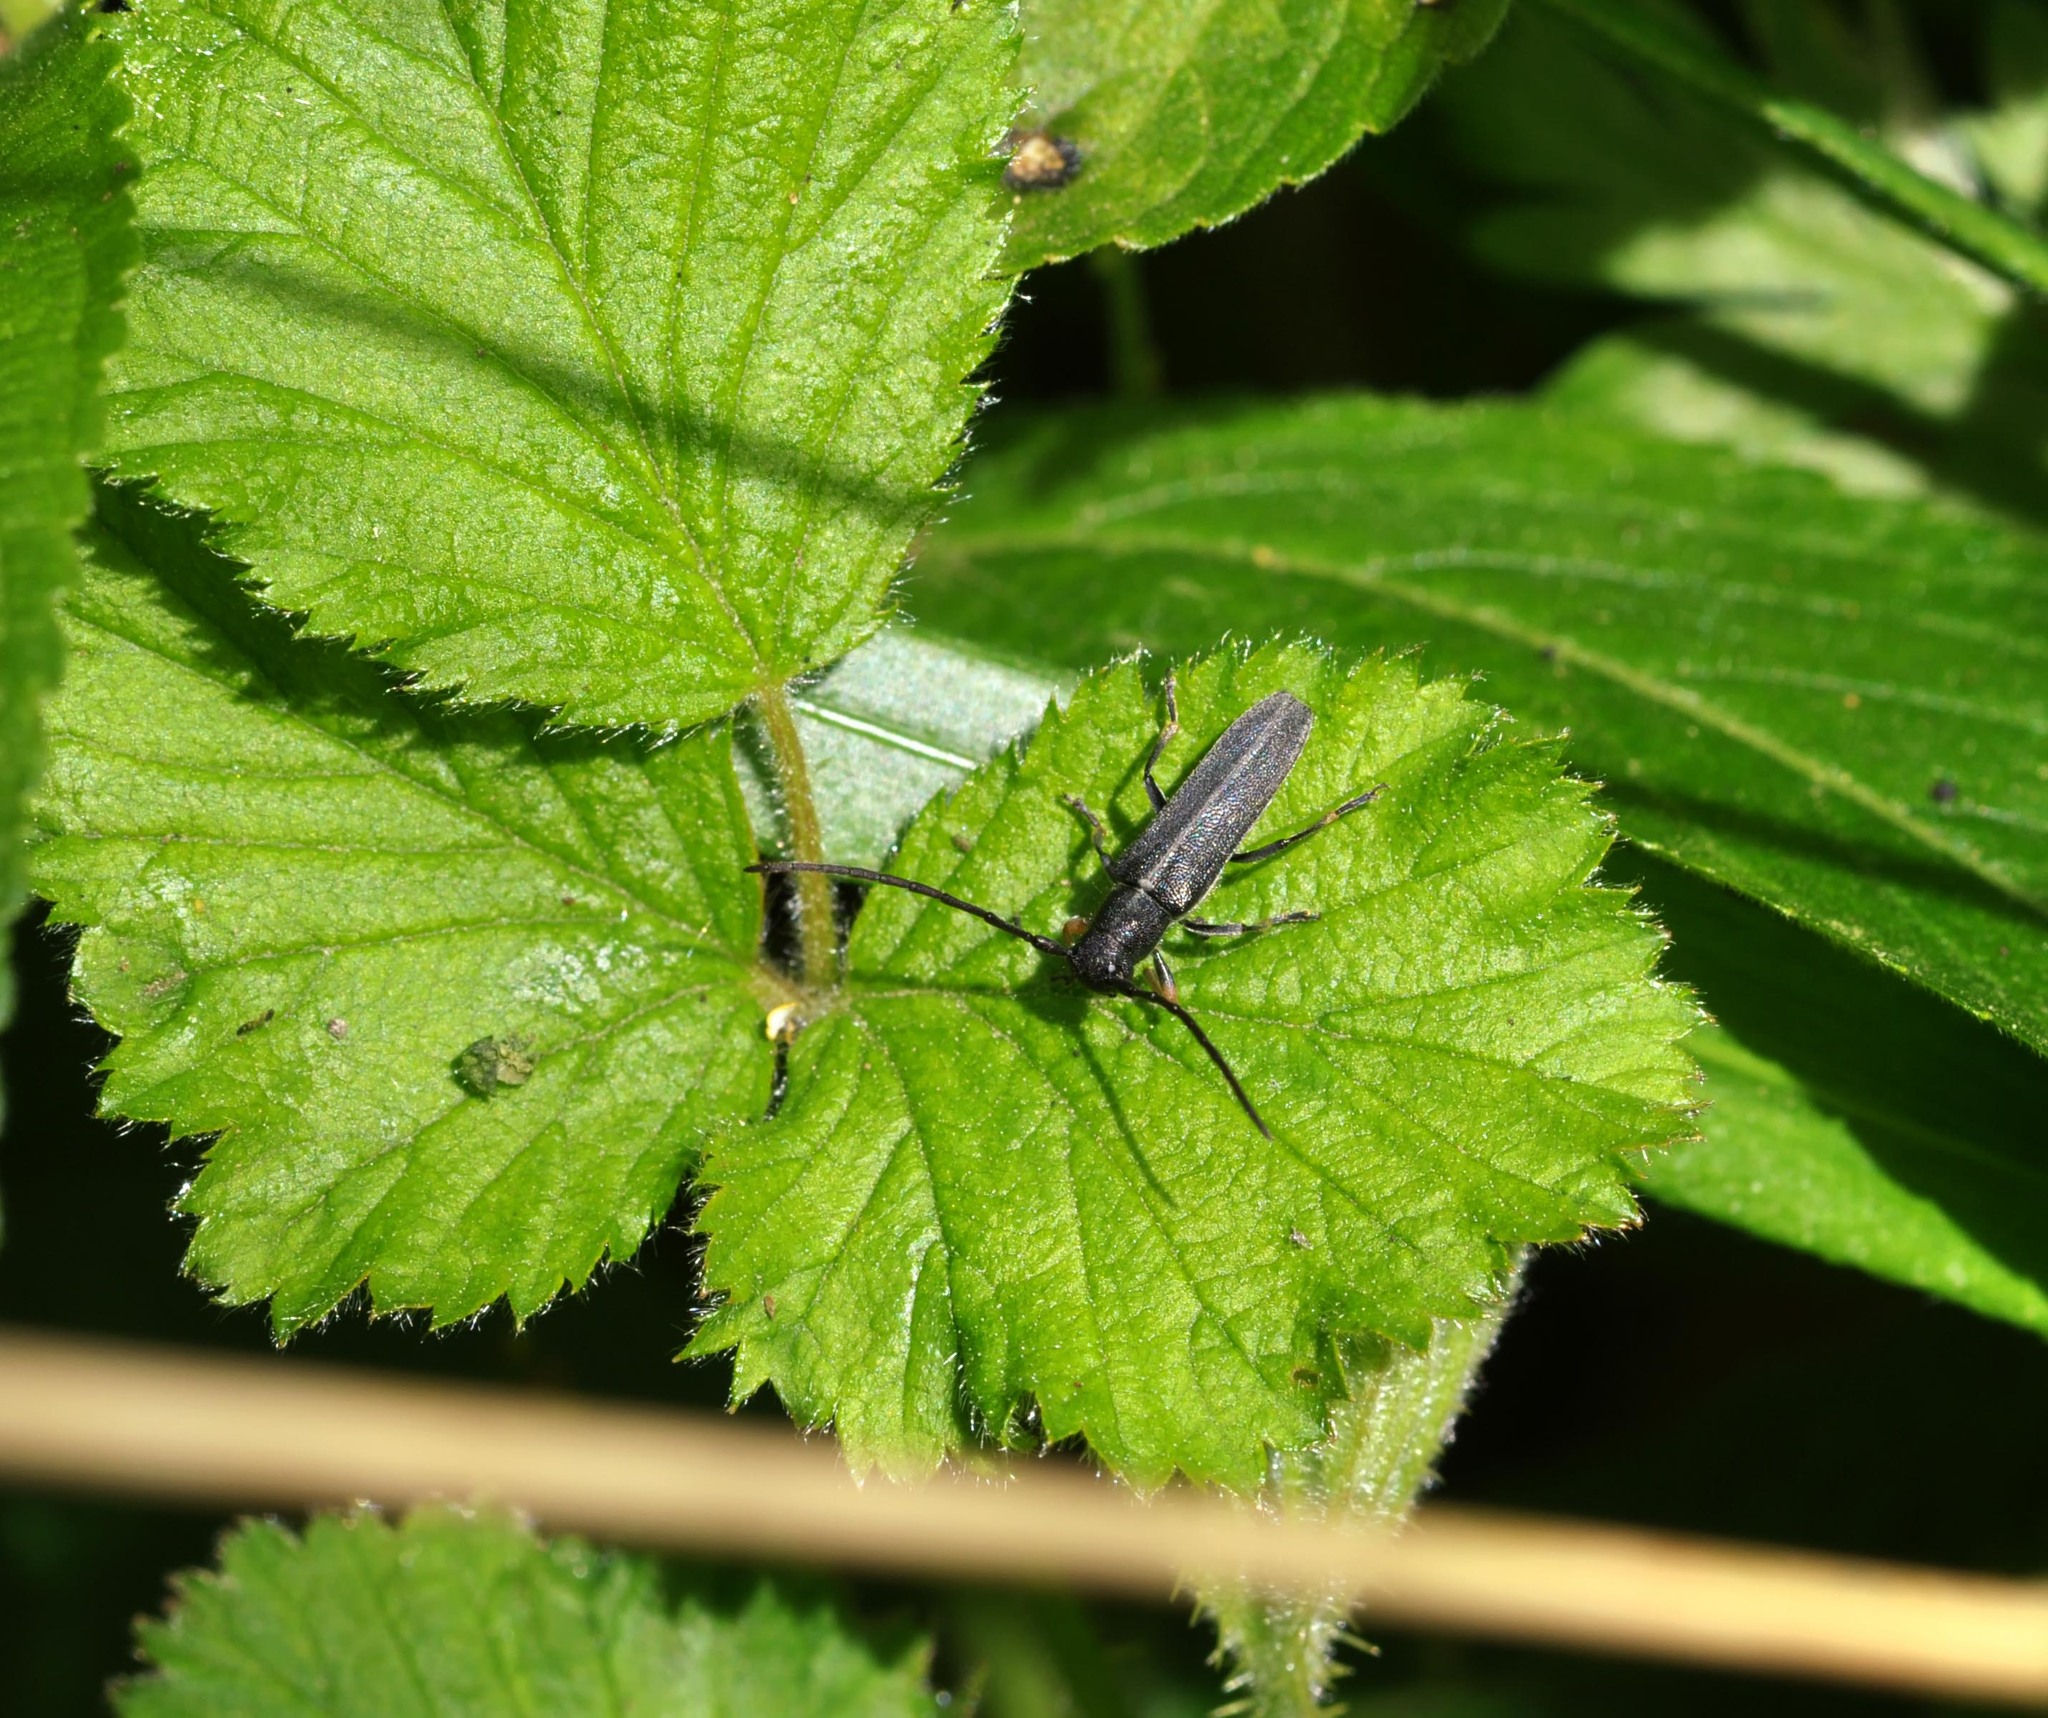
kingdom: Animalia
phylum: Arthropoda
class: Insecta
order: Coleoptera
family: Cerambycidae
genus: Phytoecia
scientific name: Phytoecia cylindrica
